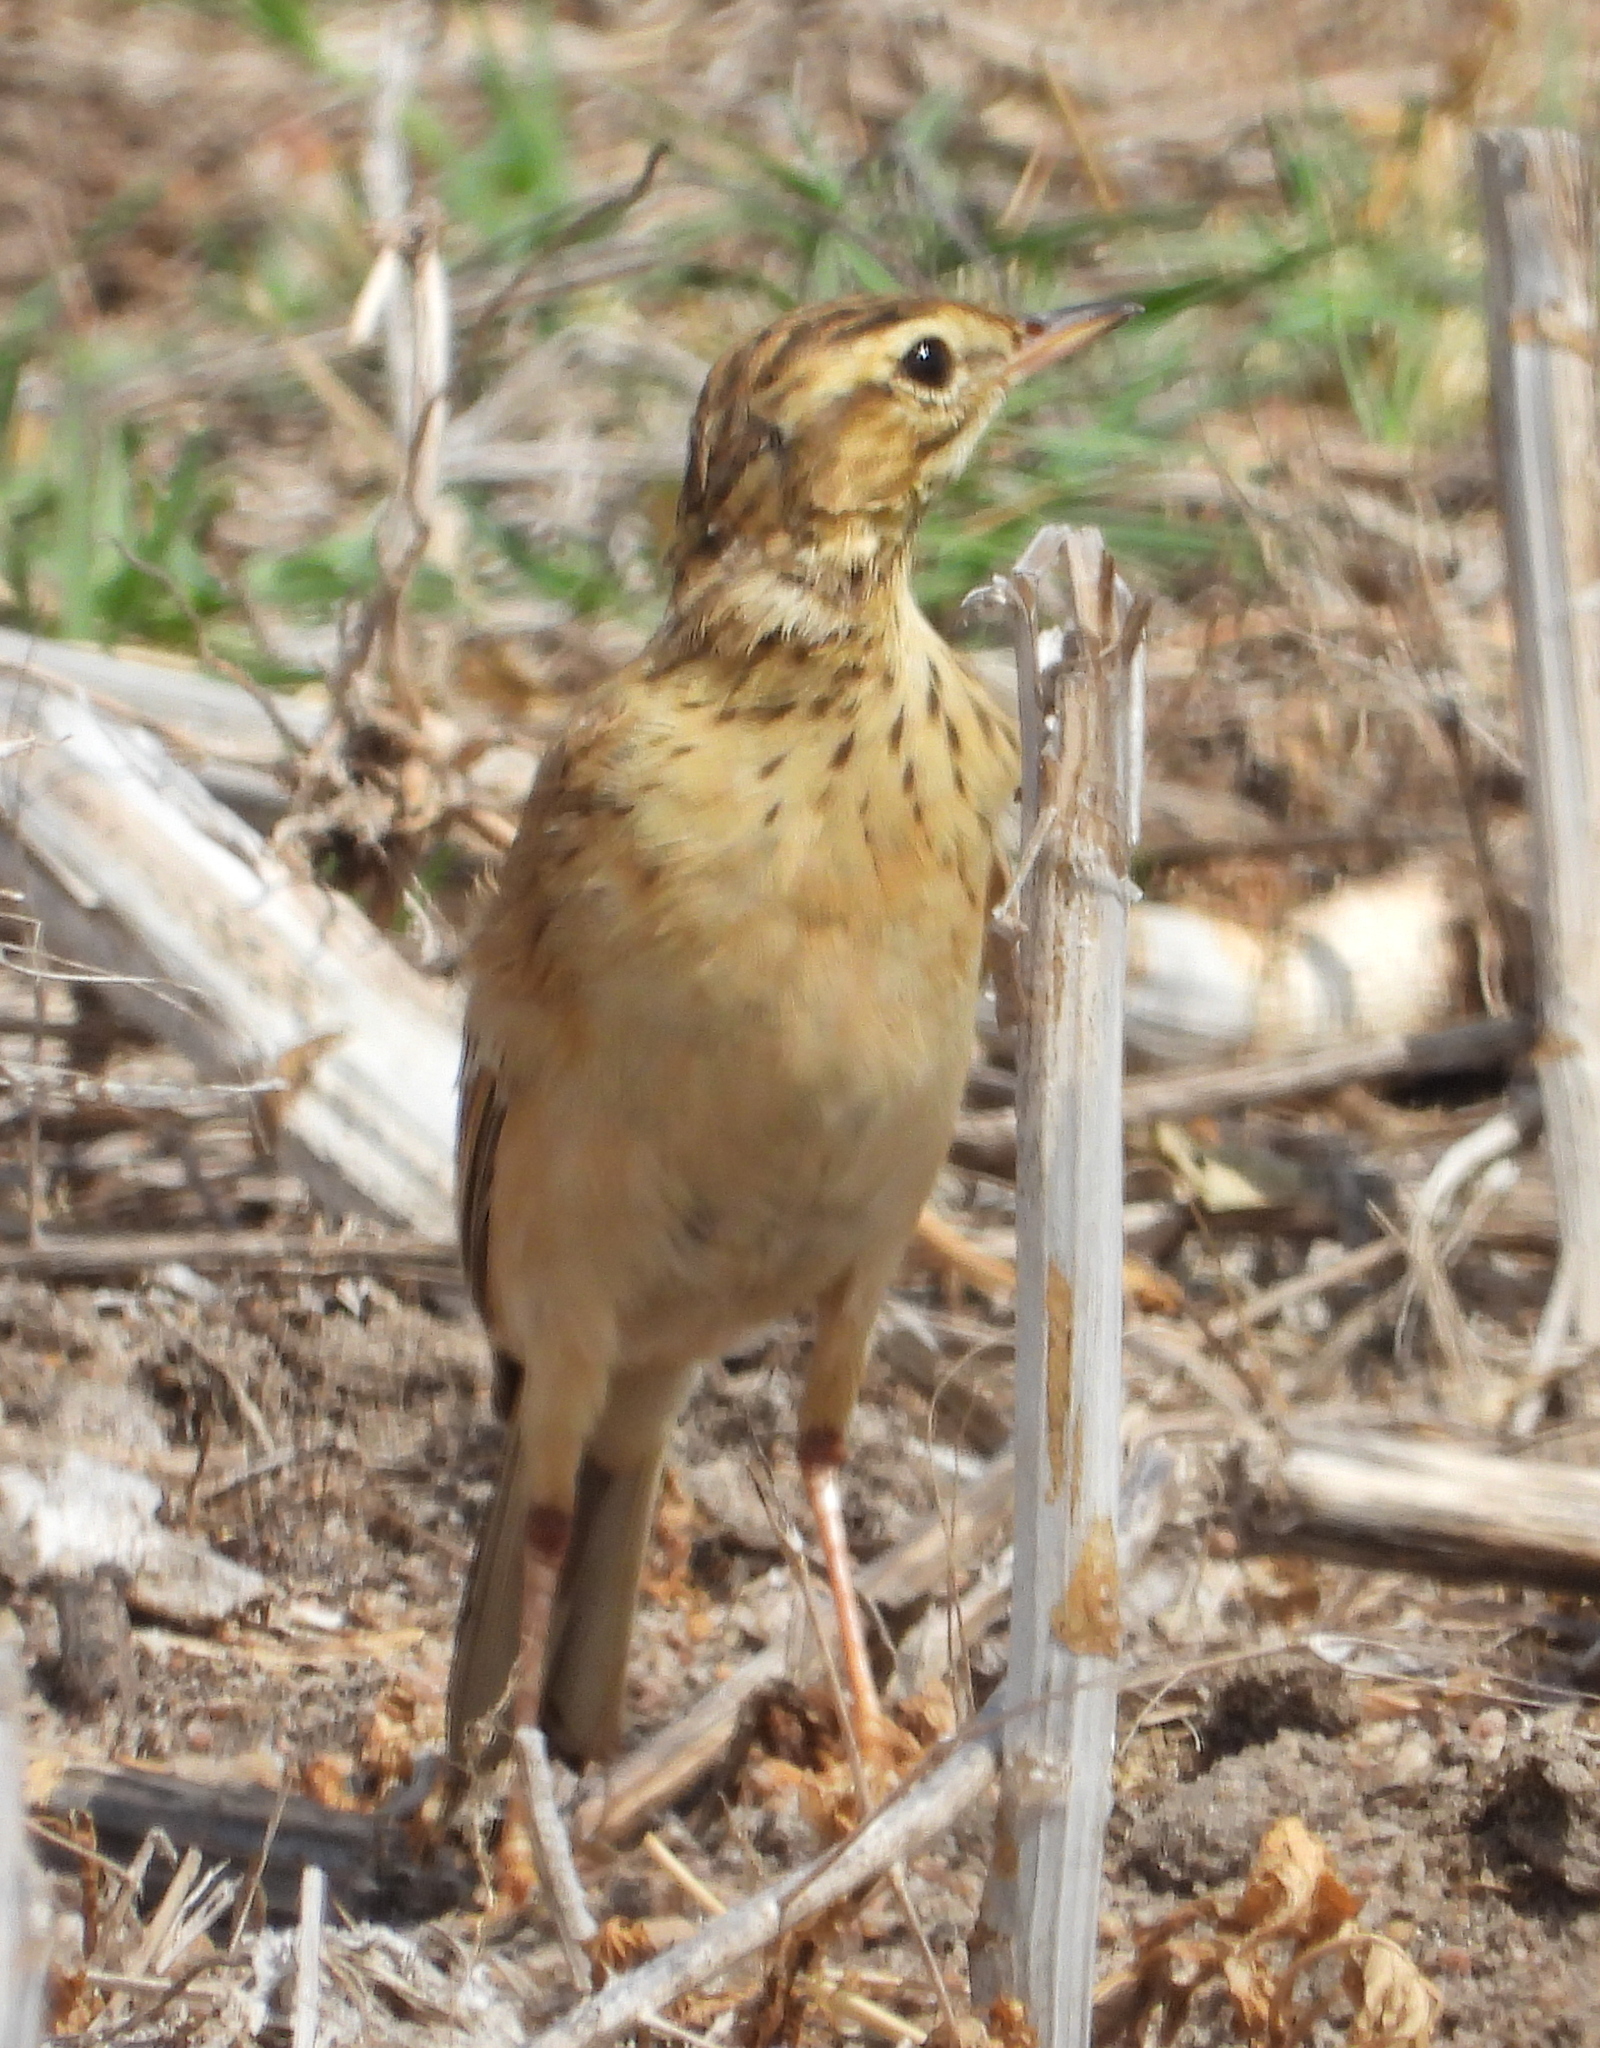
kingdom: Animalia
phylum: Chordata
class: Aves
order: Passeriformes
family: Motacillidae
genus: Anthus
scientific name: Anthus cinnamomeus
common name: African pipit
